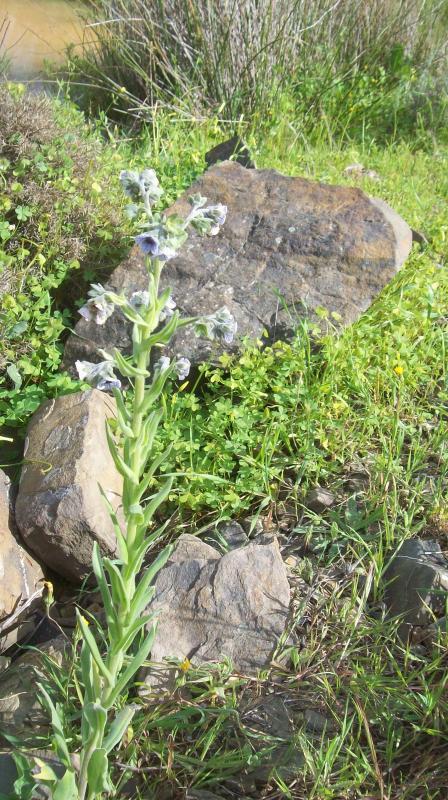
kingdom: Plantae
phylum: Tracheophyta
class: Magnoliopsida
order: Boraginales
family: Boraginaceae
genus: Cynoglossum
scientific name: Cynoglossum creticum
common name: Blue hound's tongue
